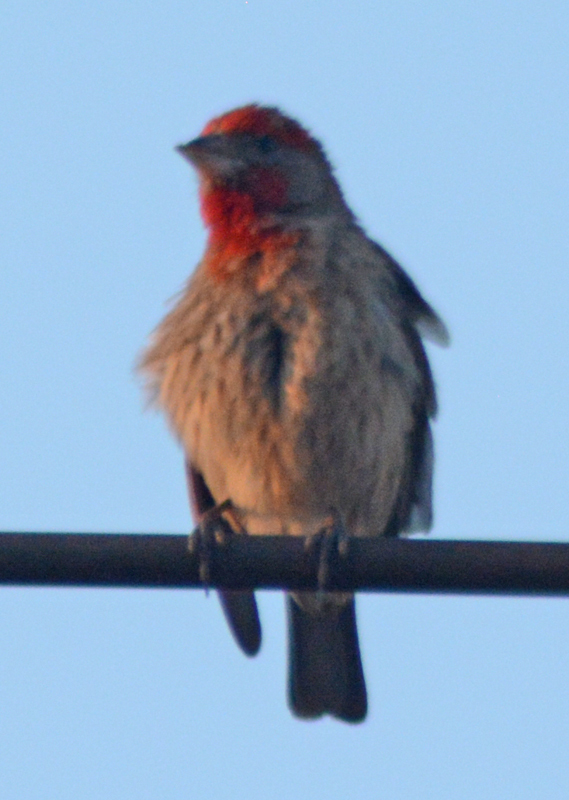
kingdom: Animalia
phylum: Chordata
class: Aves
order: Passeriformes
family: Fringillidae
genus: Haemorhous
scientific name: Haemorhous mexicanus
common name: House finch
